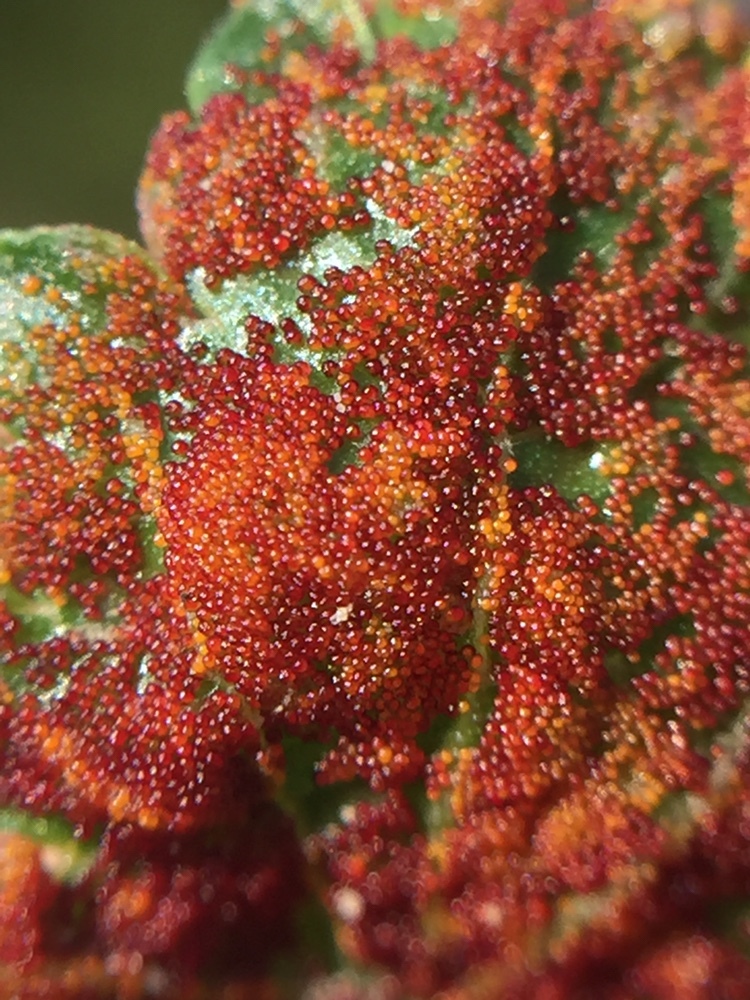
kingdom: Fungi
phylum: Chytridiomycota
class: Chytridiomycetes
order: Chytridiales
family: Synchytriaceae
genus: Synchytrium
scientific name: Synchytrium australe
